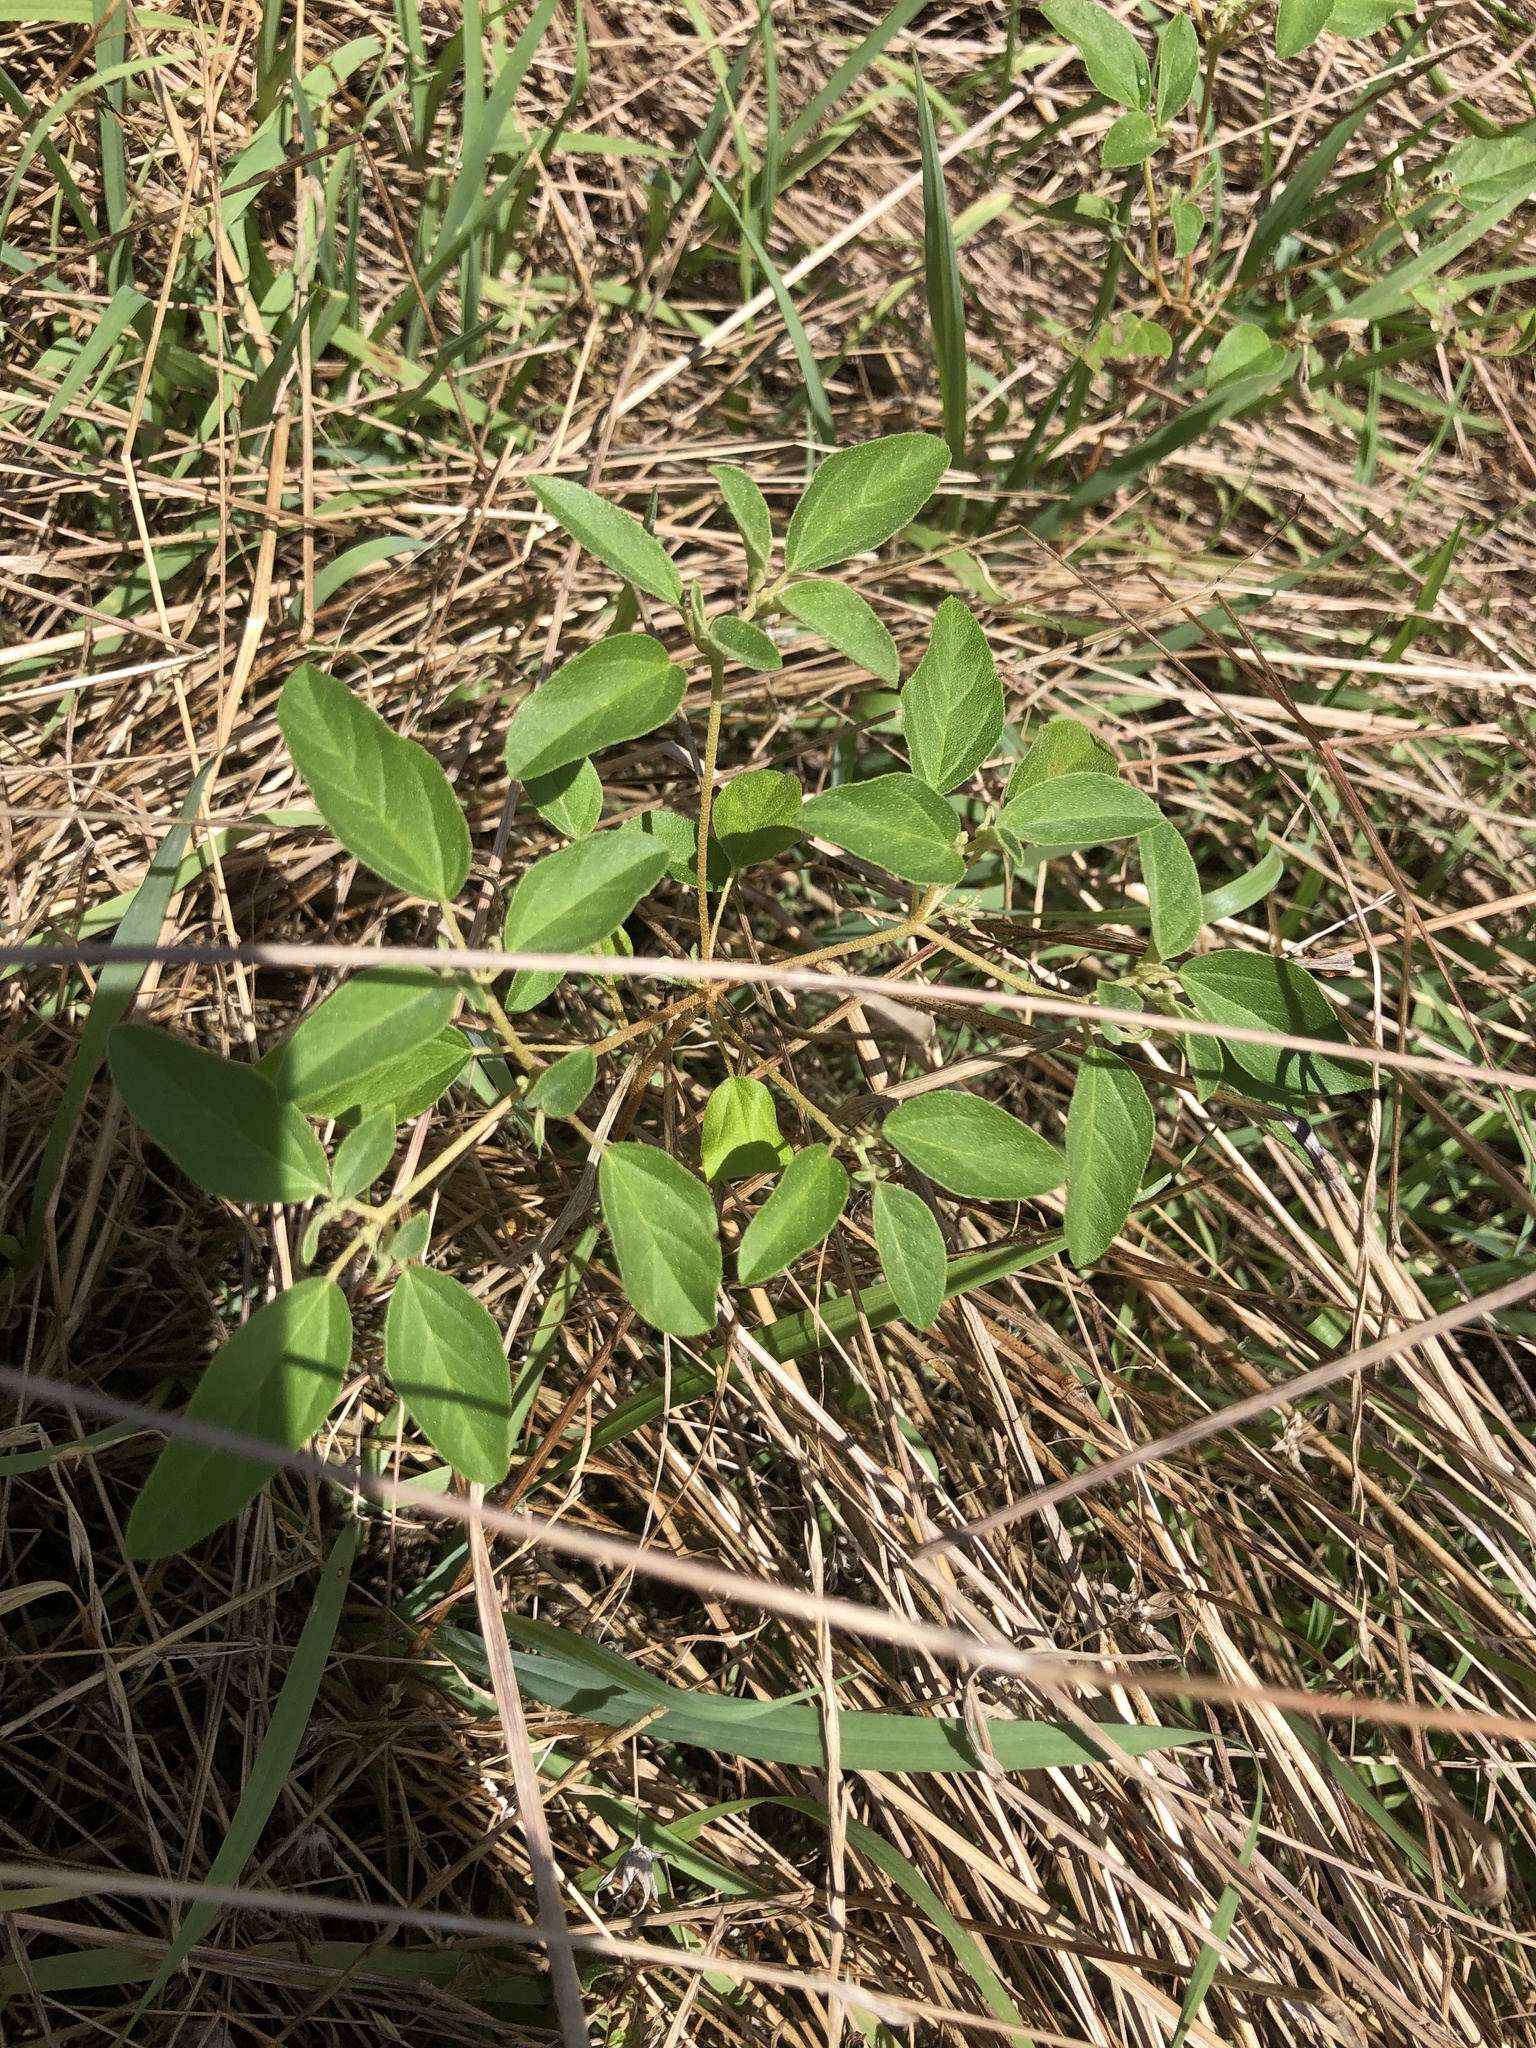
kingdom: Plantae
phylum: Tracheophyta
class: Magnoliopsida
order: Malpighiales
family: Euphorbiaceae
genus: Croton
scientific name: Croton monanthogynus
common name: One-seed croton
